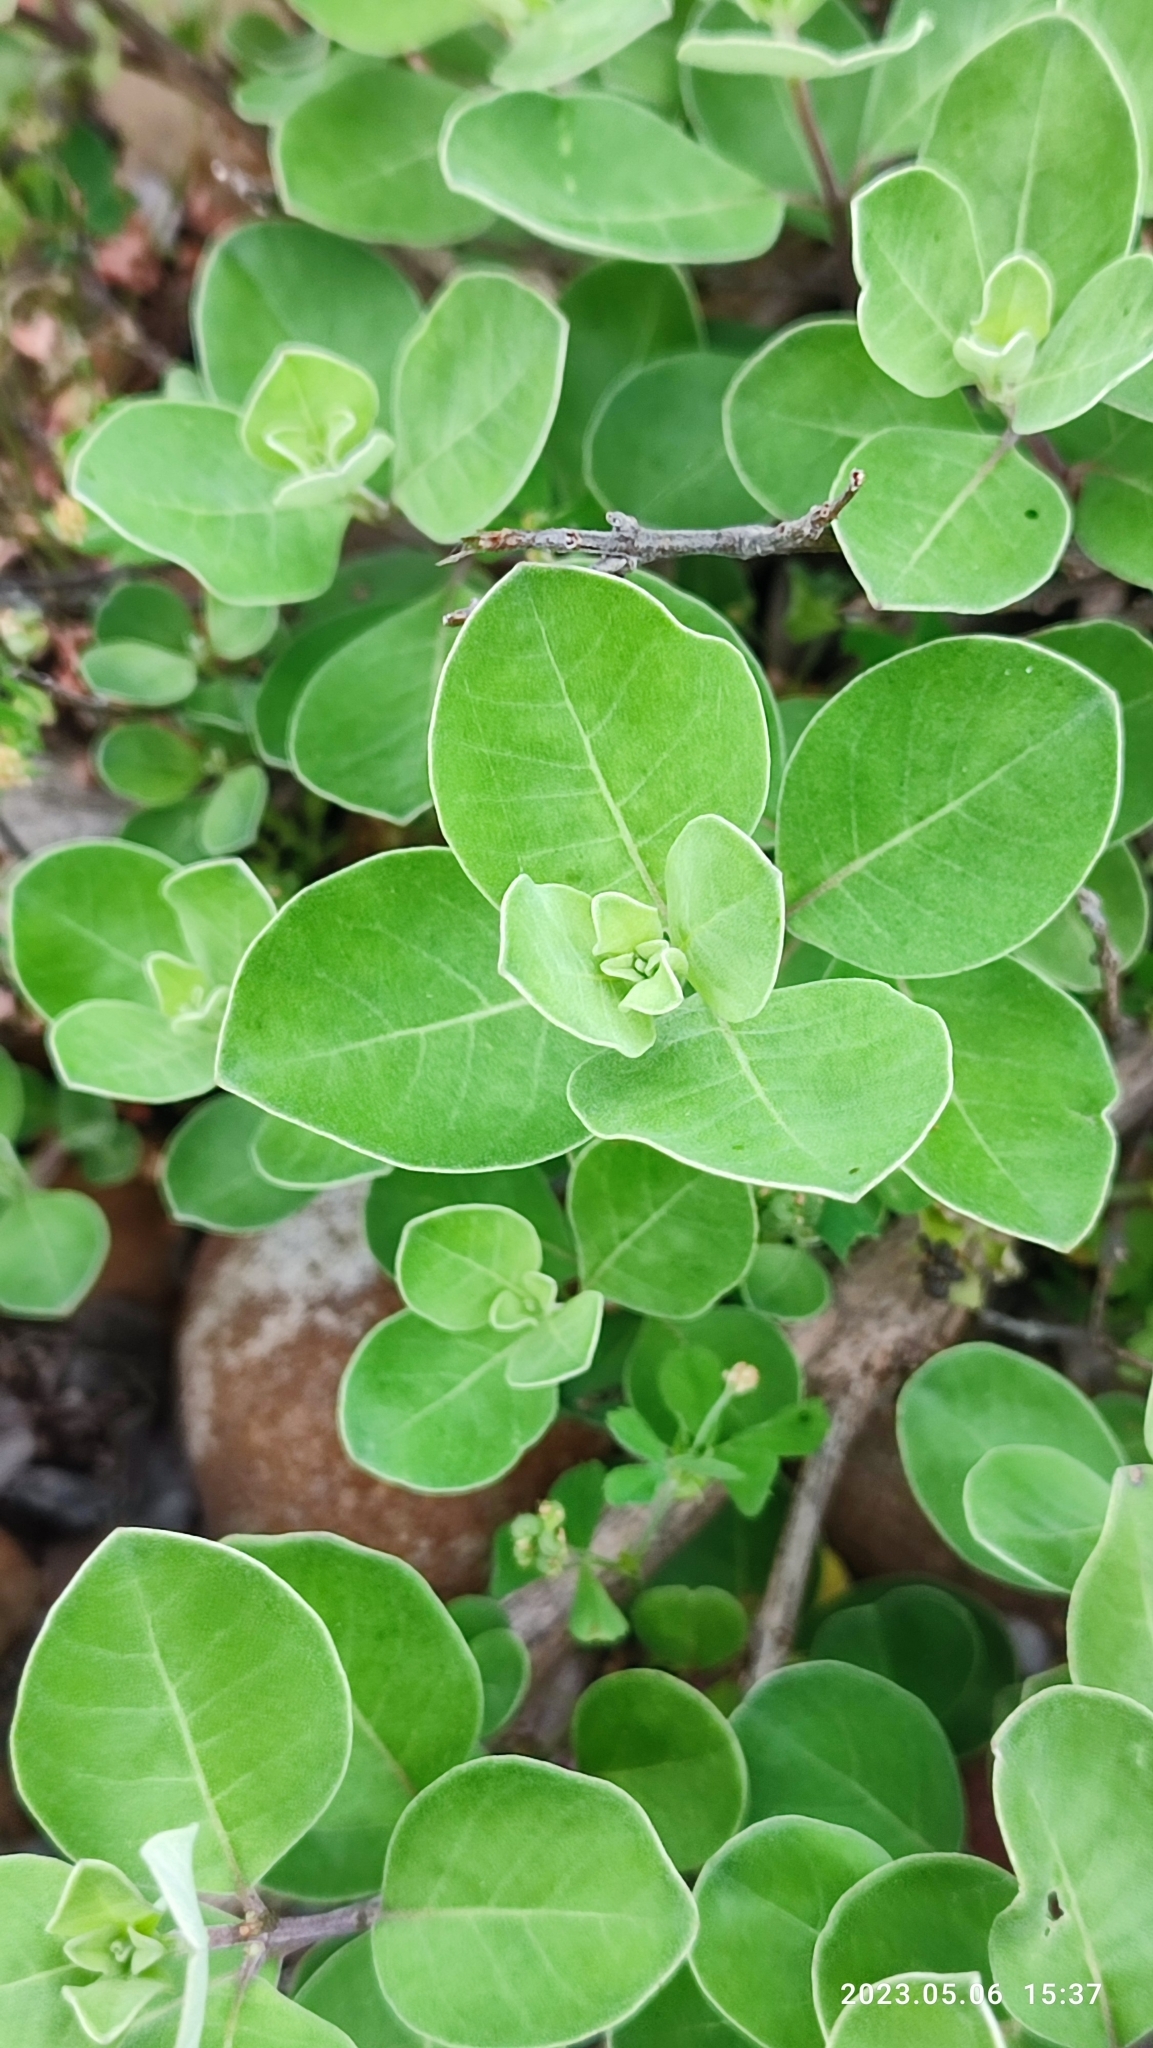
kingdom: Plantae
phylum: Tracheophyta
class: Magnoliopsida
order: Lamiales
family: Lamiaceae
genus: Vitex
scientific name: Vitex rotundifolia
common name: Beach vitex
